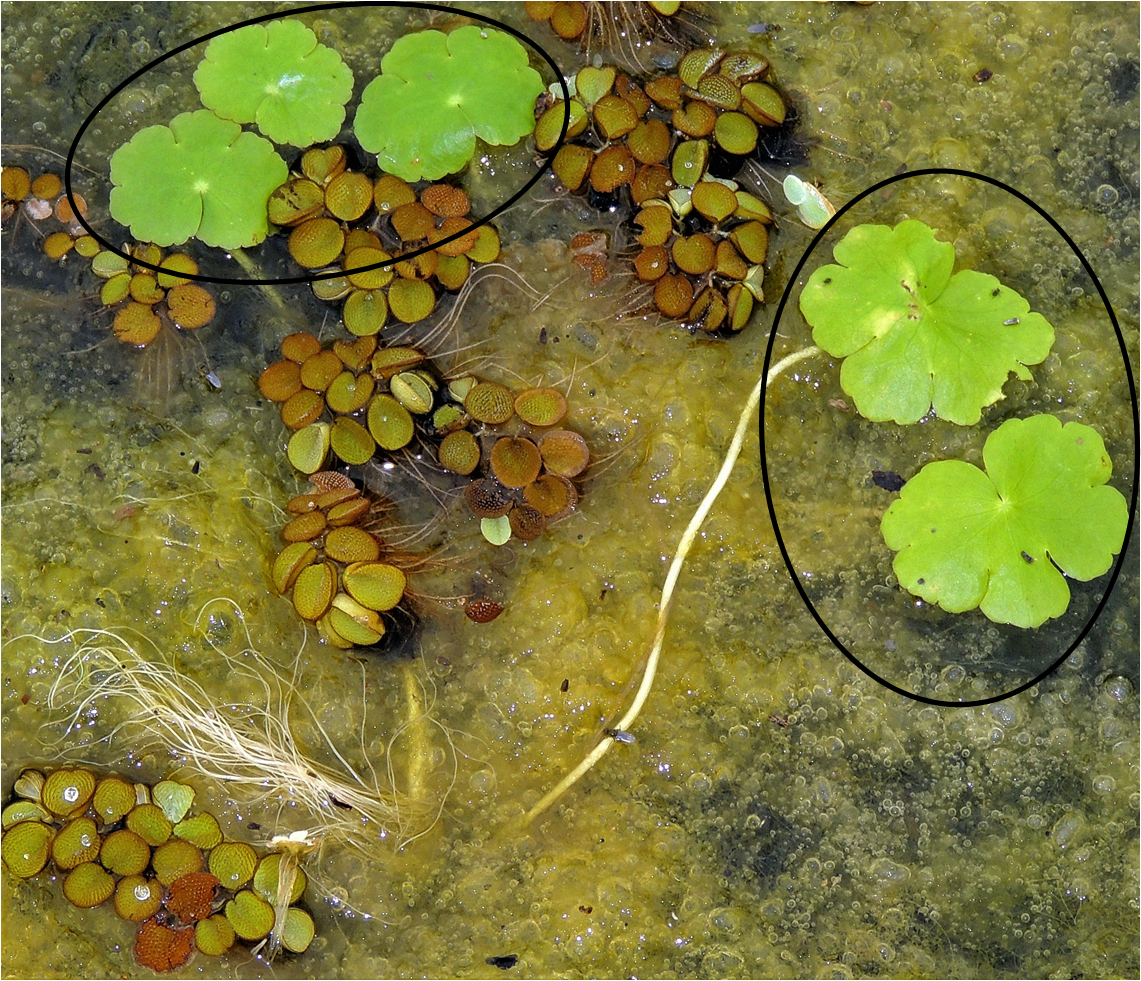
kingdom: Plantae
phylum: Tracheophyta
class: Magnoliopsida
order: Apiales
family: Araliaceae
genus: Hydrocotyle
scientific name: Hydrocotyle ranunculoides
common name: Floating pennywort
